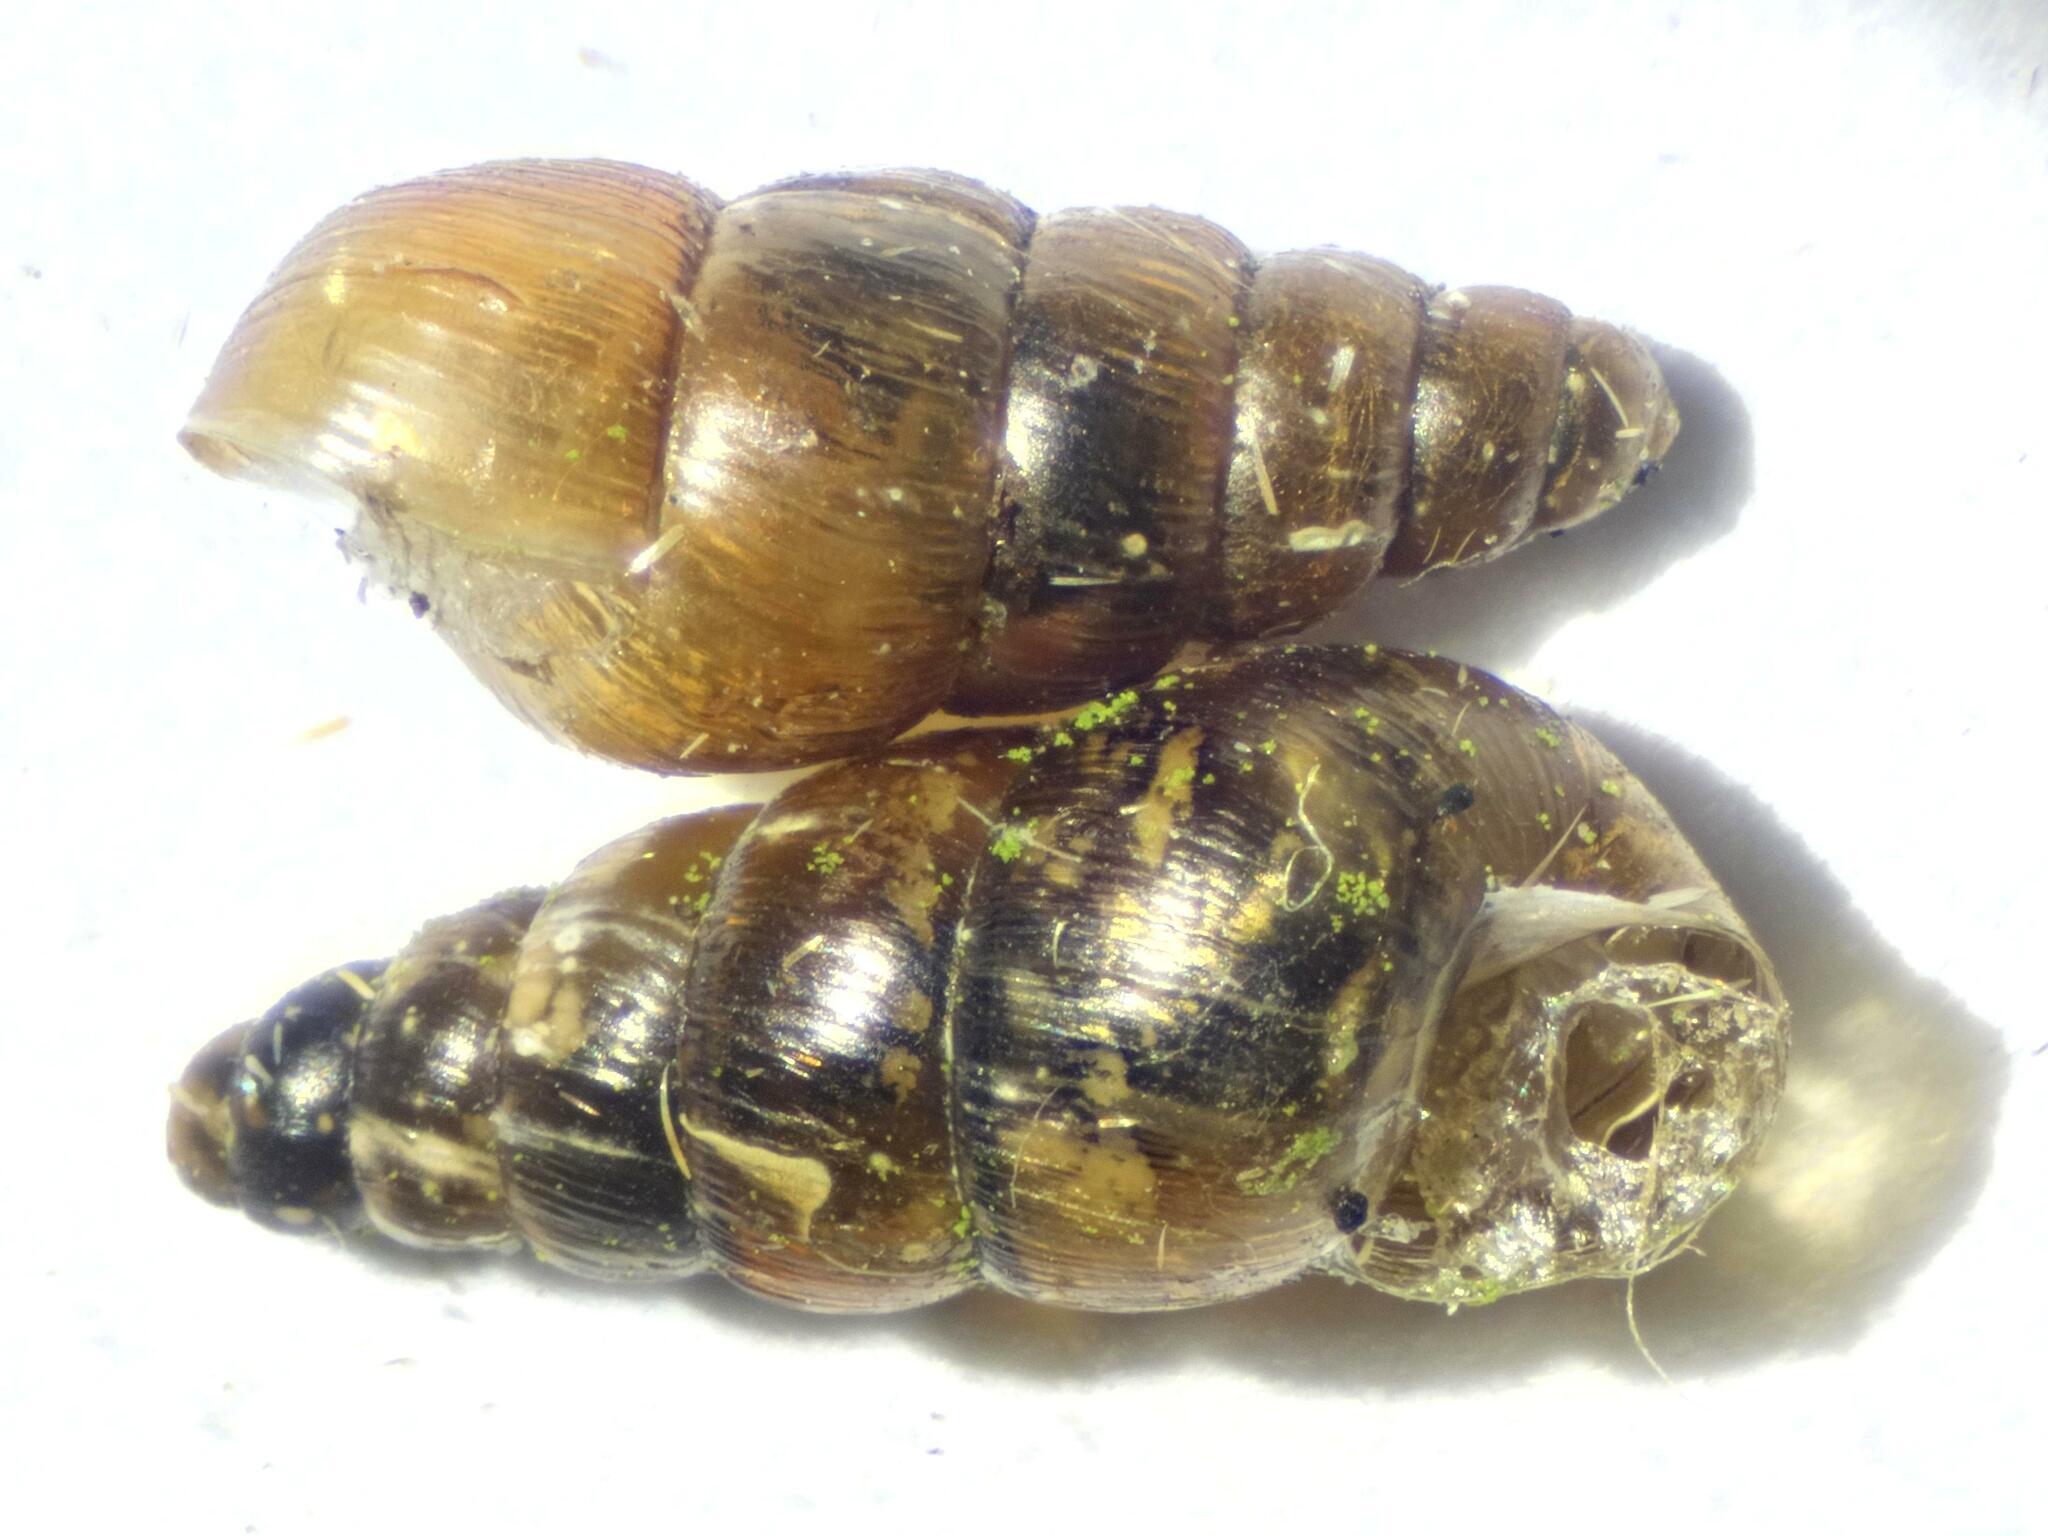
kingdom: Animalia
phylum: Mollusca
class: Gastropoda
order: Stylommatophora
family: Clausiliidae
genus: Balea
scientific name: Balea heydeni
